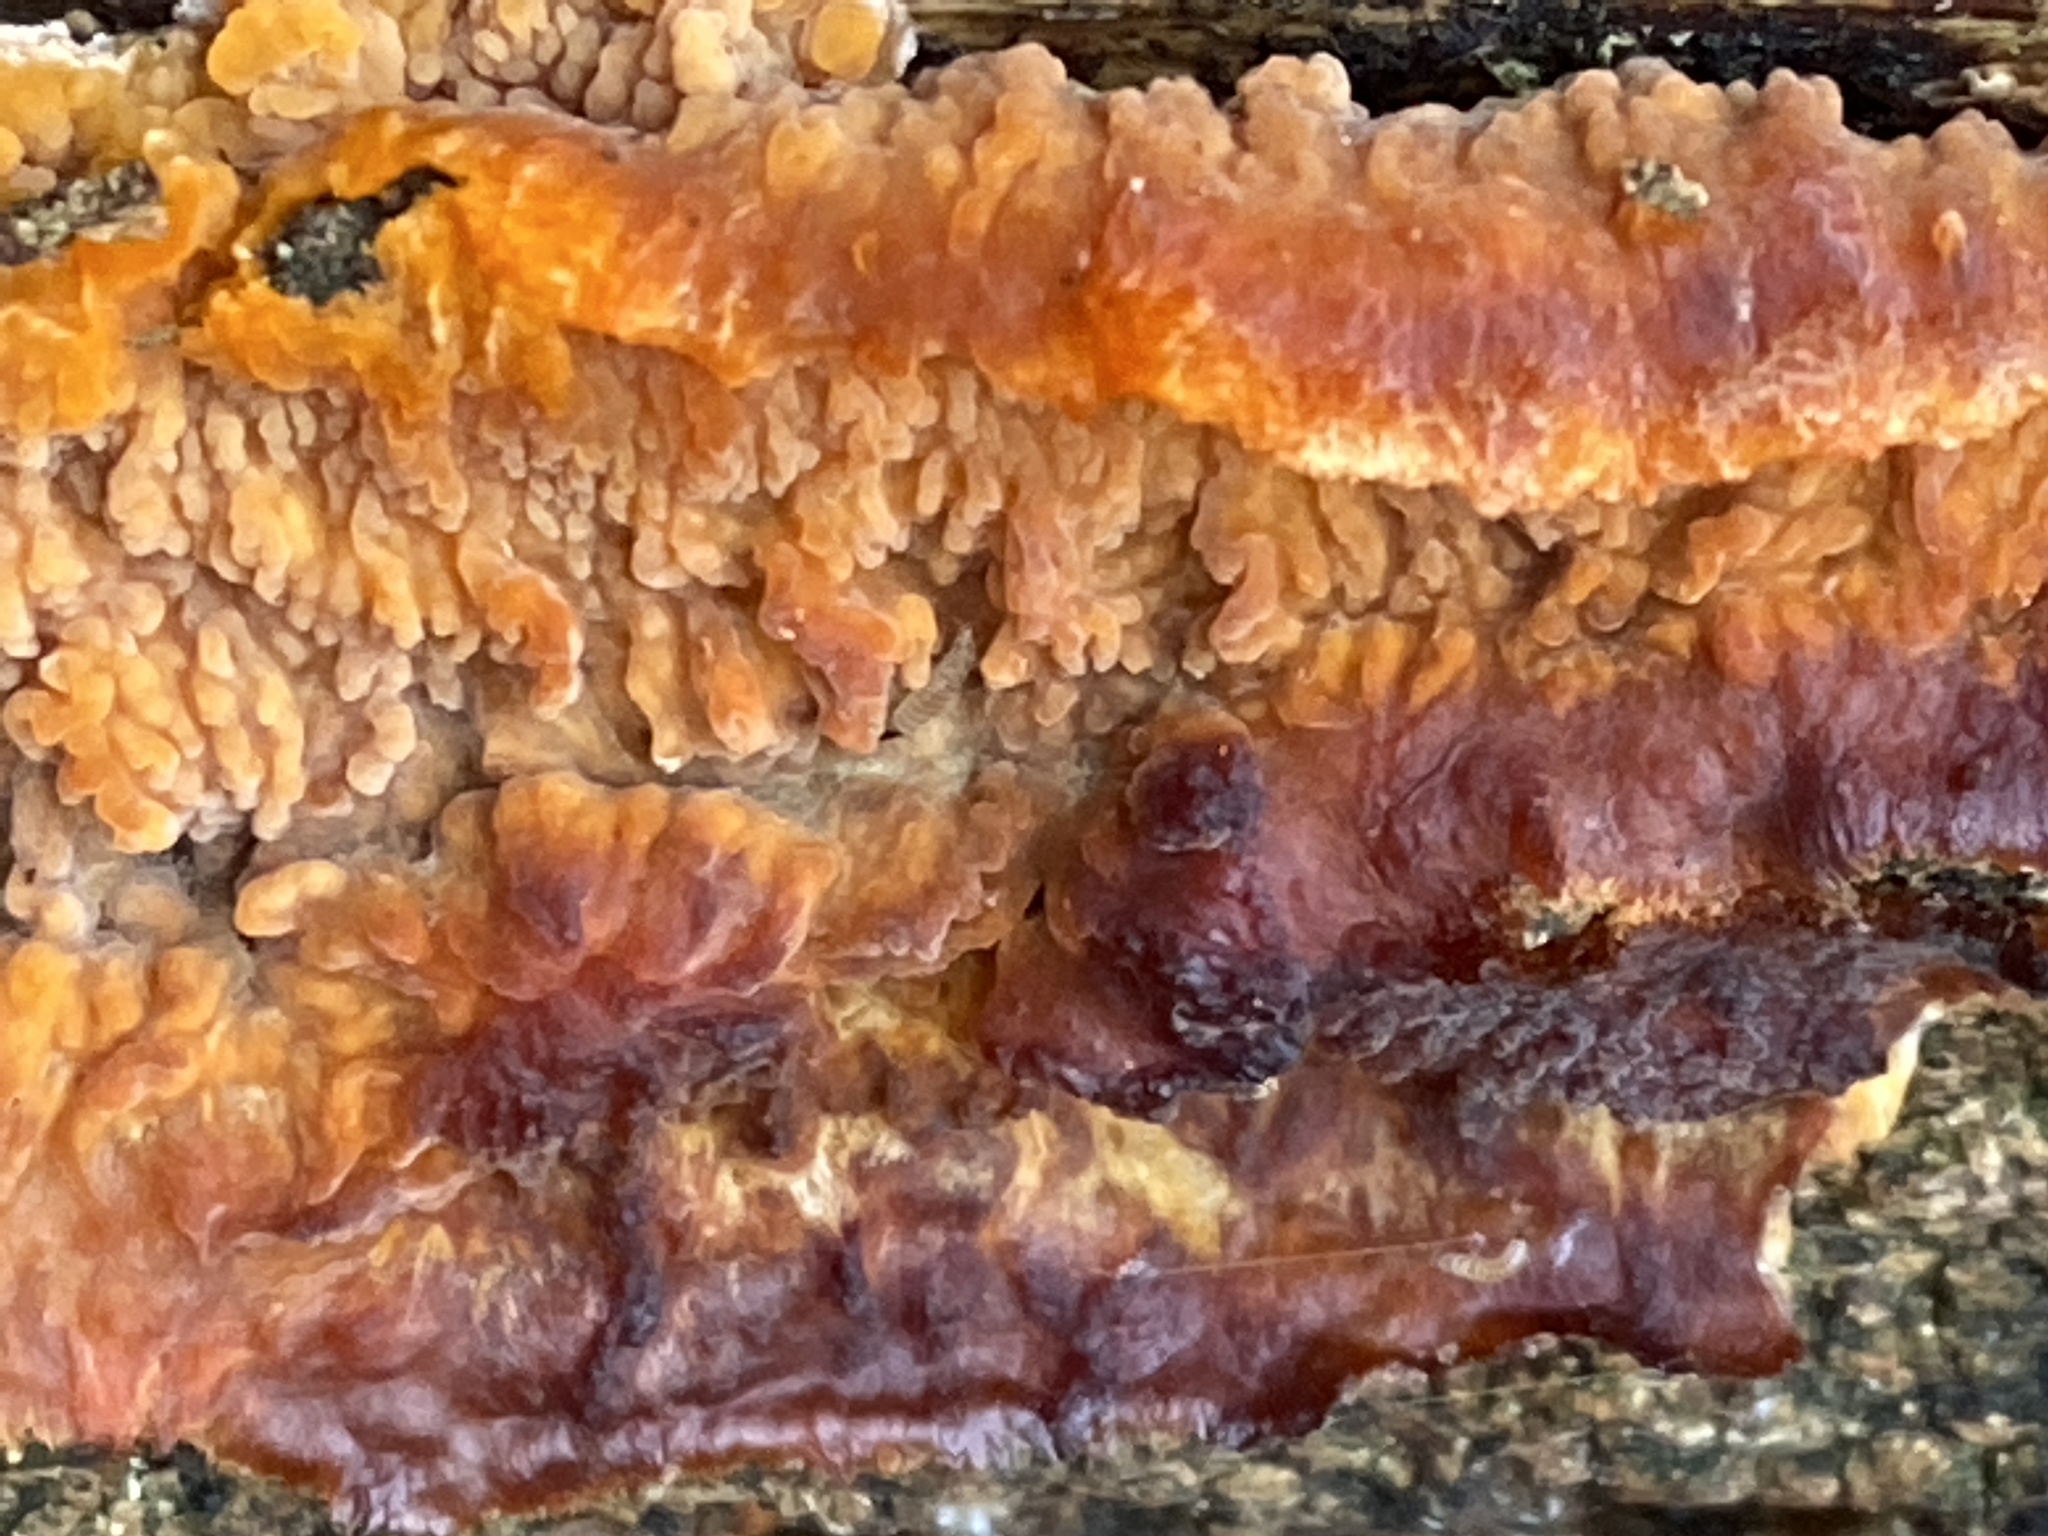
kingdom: Fungi
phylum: Basidiomycota
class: Agaricomycetes
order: Polyporales
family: Meruliaceae
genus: Phlebia
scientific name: Phlebia radiata
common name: Wrinkled crust
